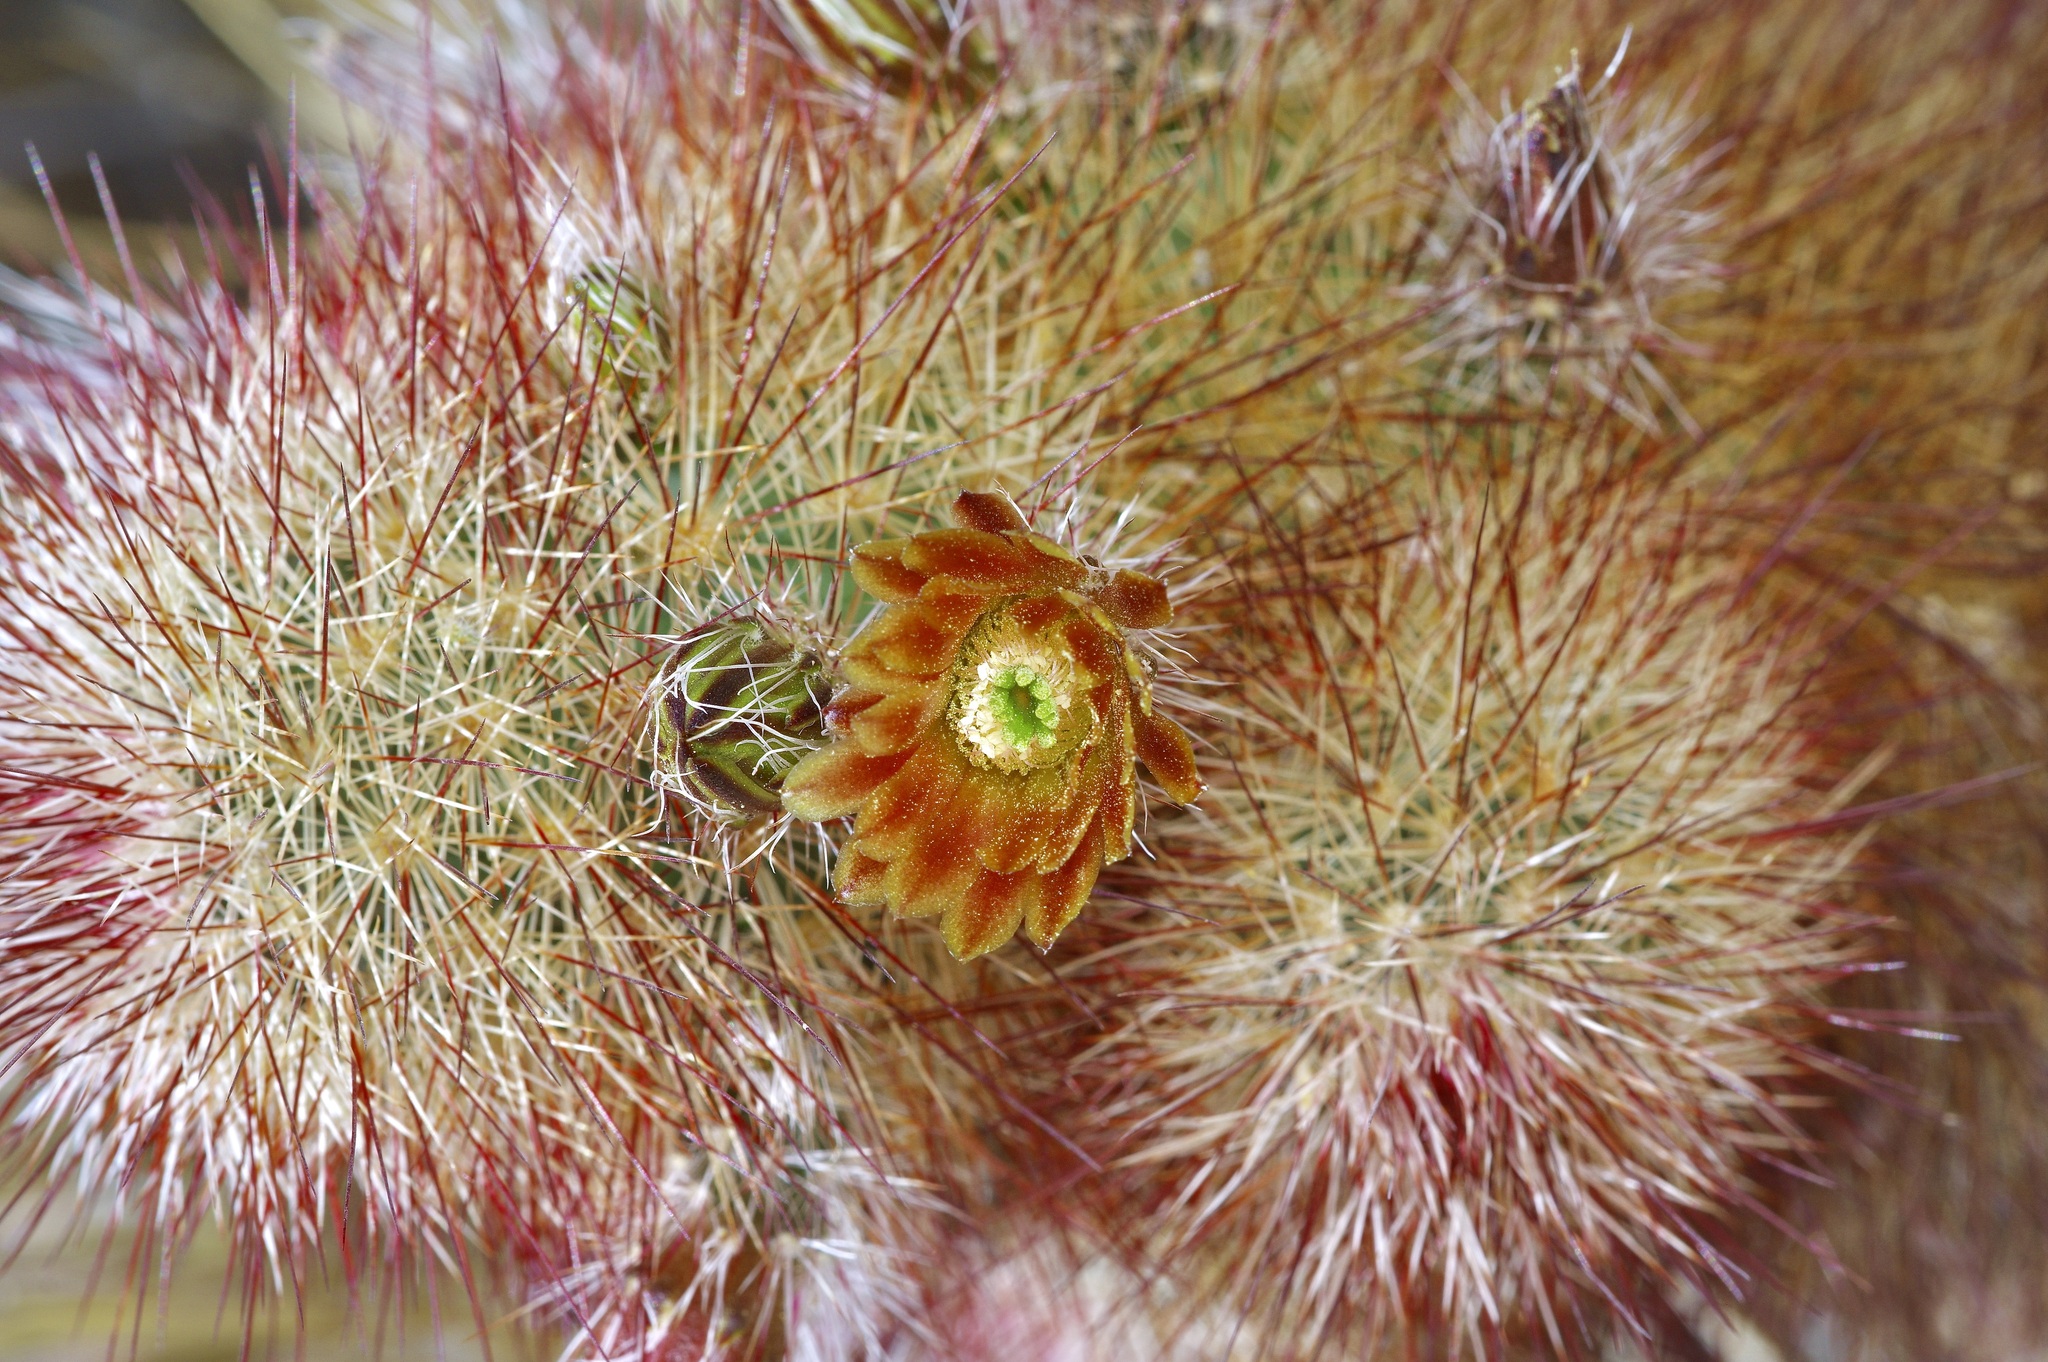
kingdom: Plantae
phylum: Tracheophyta
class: Magnoliopsida
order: Caryophyllales
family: Cactaceae
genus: Echinocereus
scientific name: Echinocereus russanthus
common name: Brownspine hedgehog cactus
